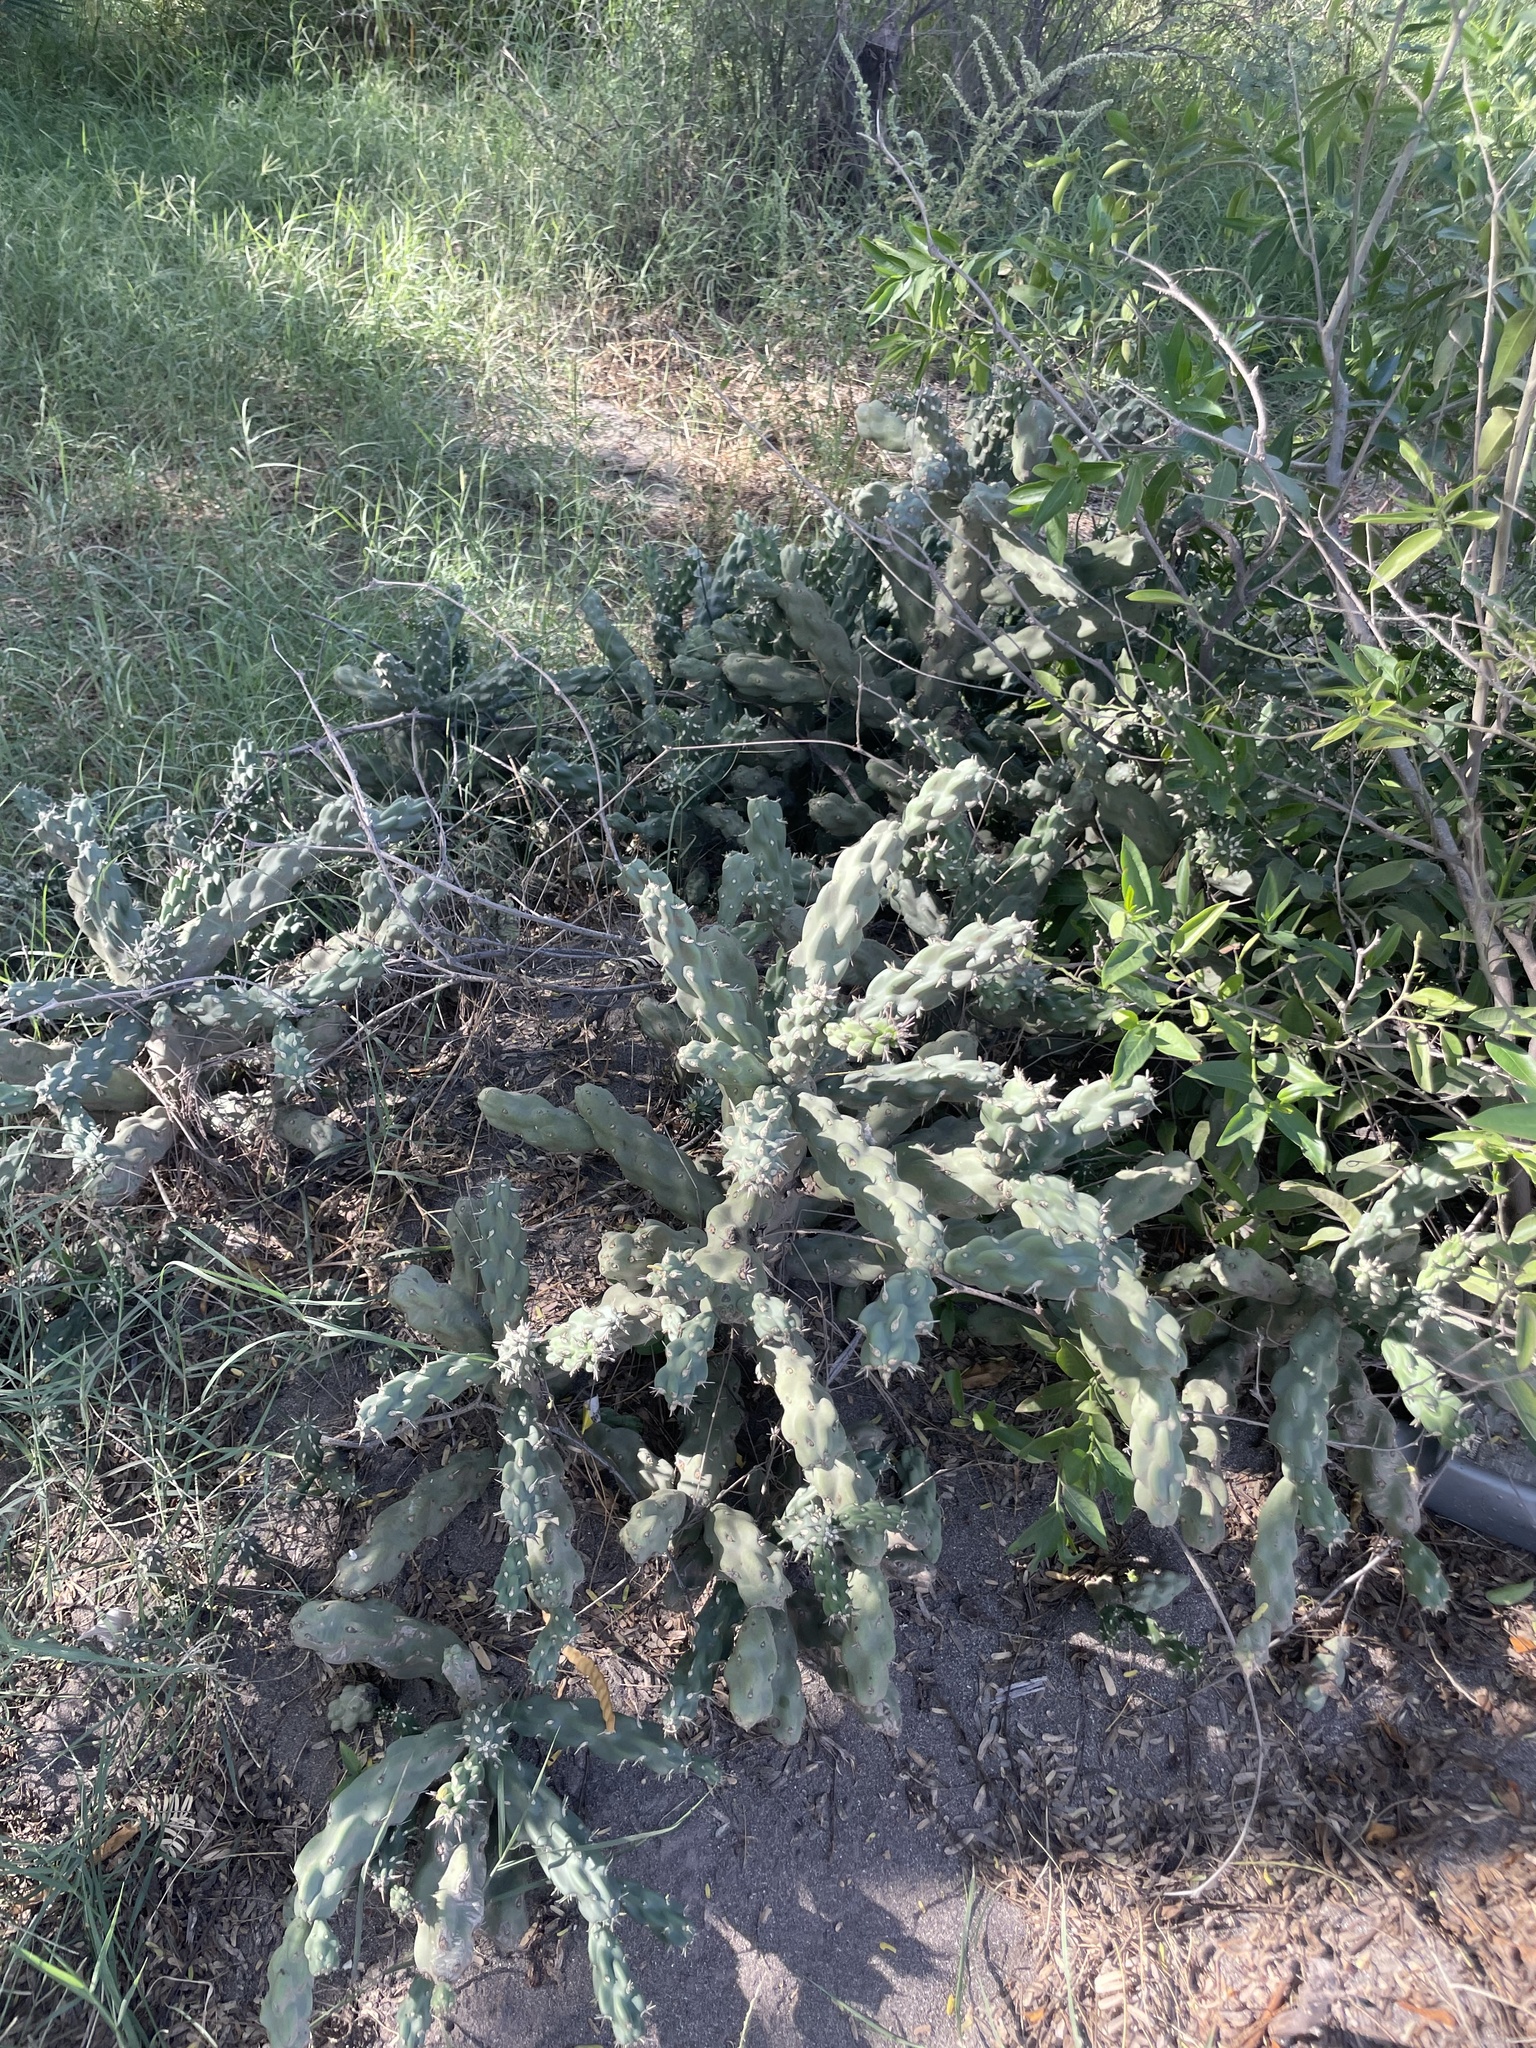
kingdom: Plantae
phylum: Tracheophyta
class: Magnoliopsida
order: Caryophyllales
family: Cactaceae
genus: Cylindropuntia
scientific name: Cylindropuntia cholla
